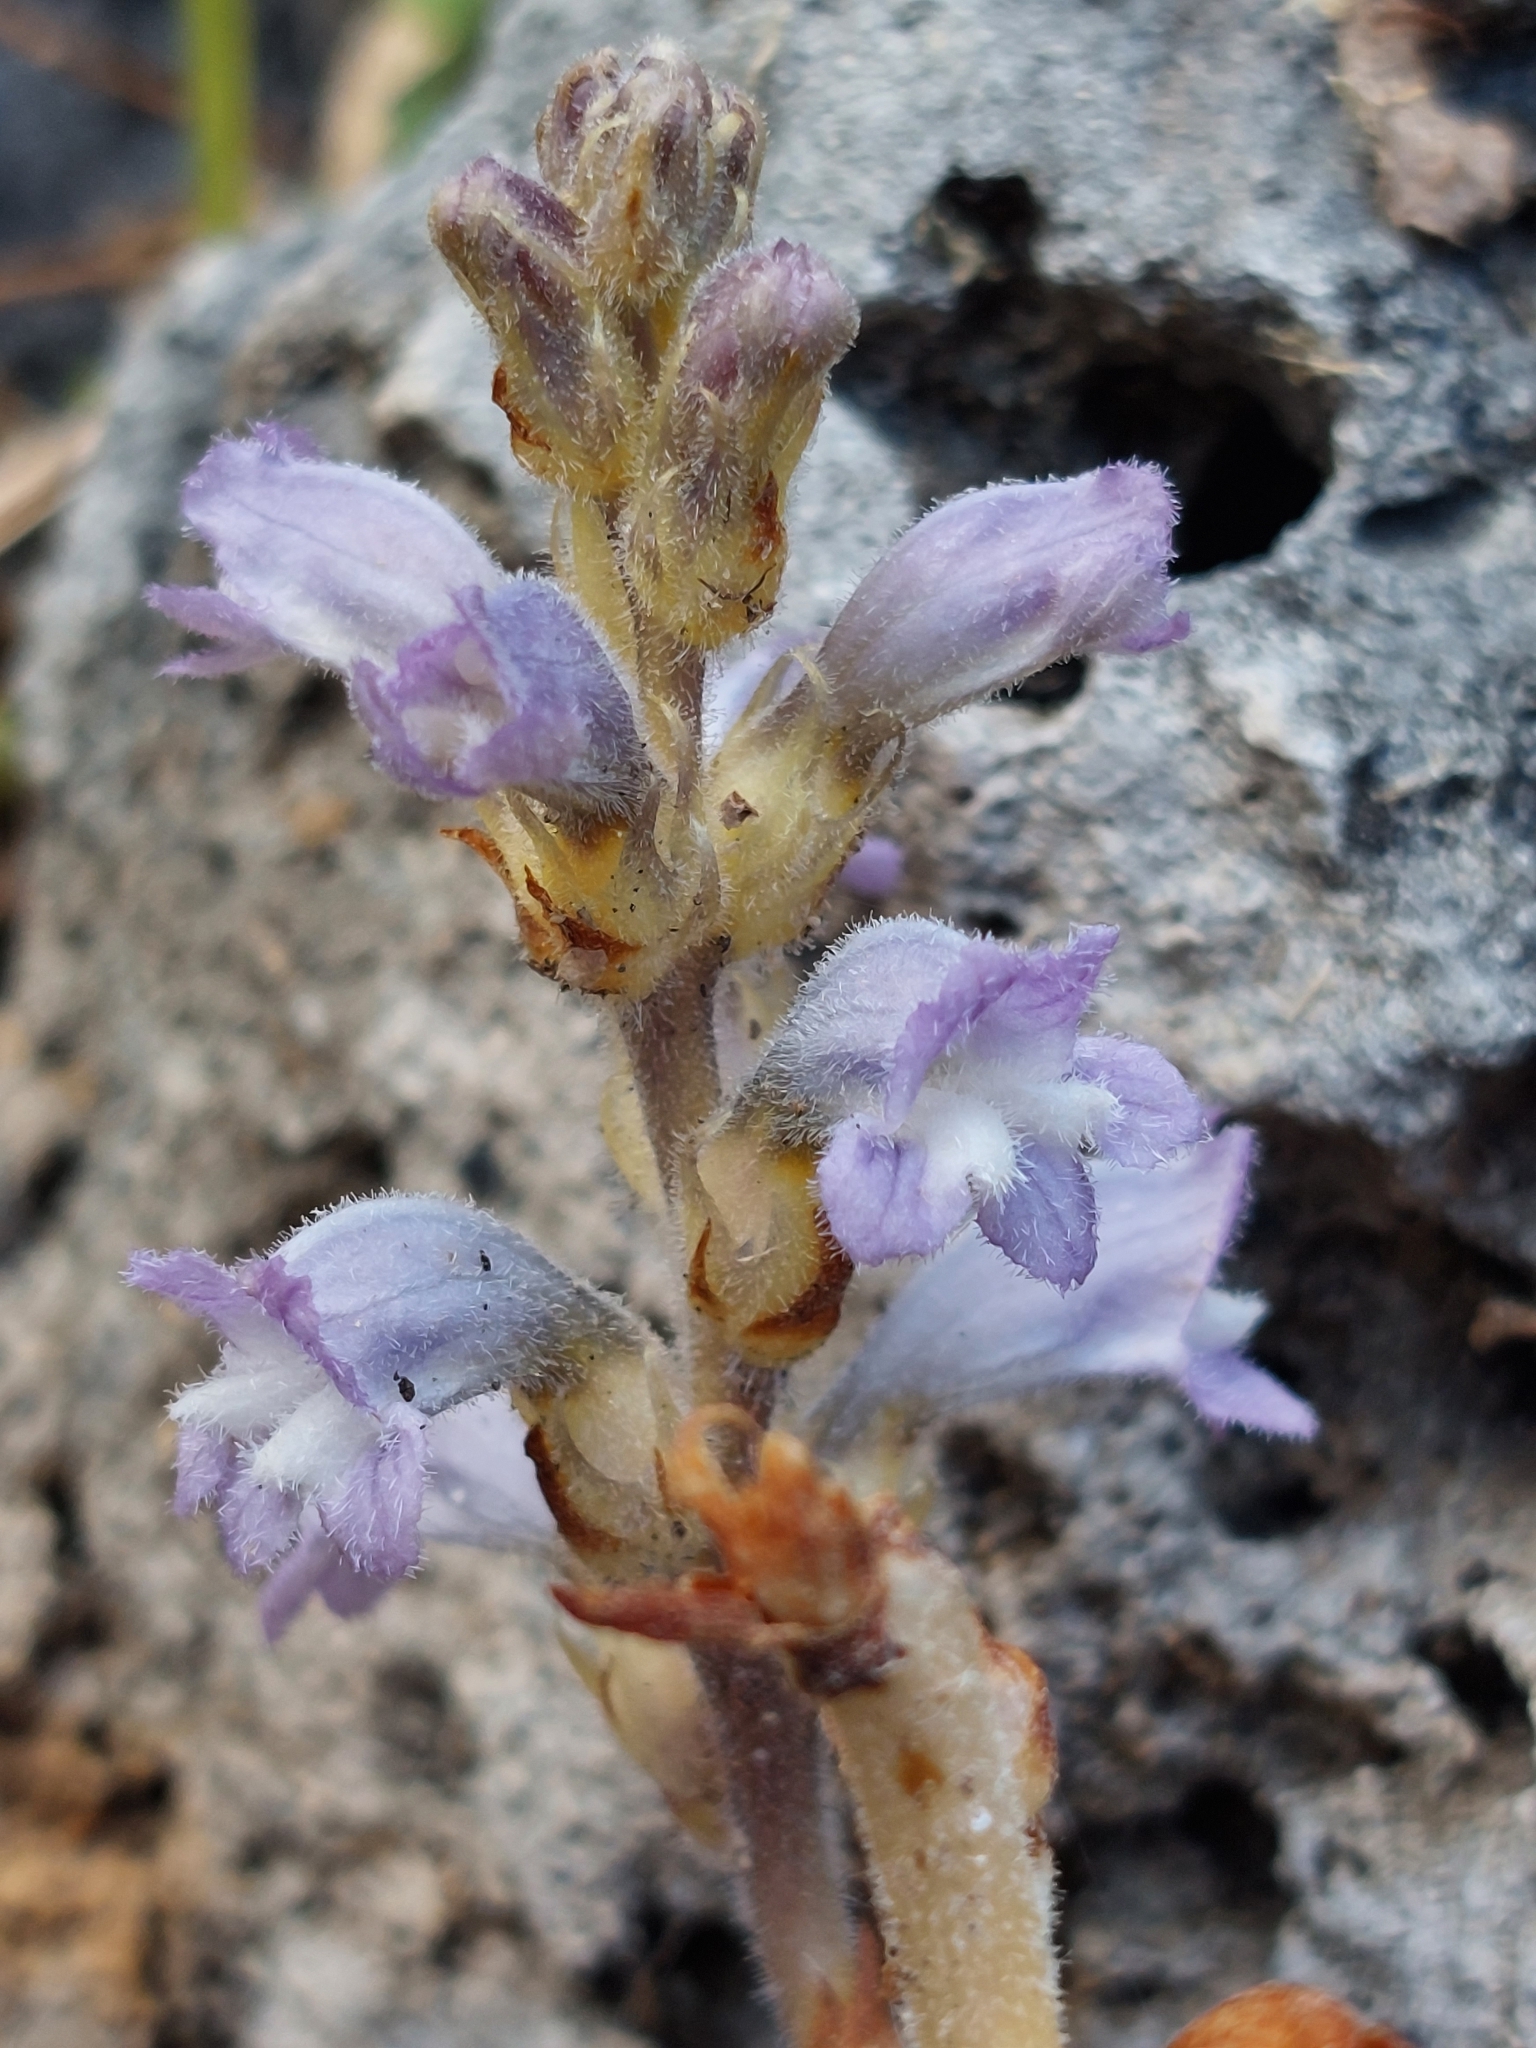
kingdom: Plantae
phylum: Tracheophyta
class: Magnoliopsida
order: Lamiales
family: Orobanchaceae
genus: Phelipanche
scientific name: Phelipanche mutelii
